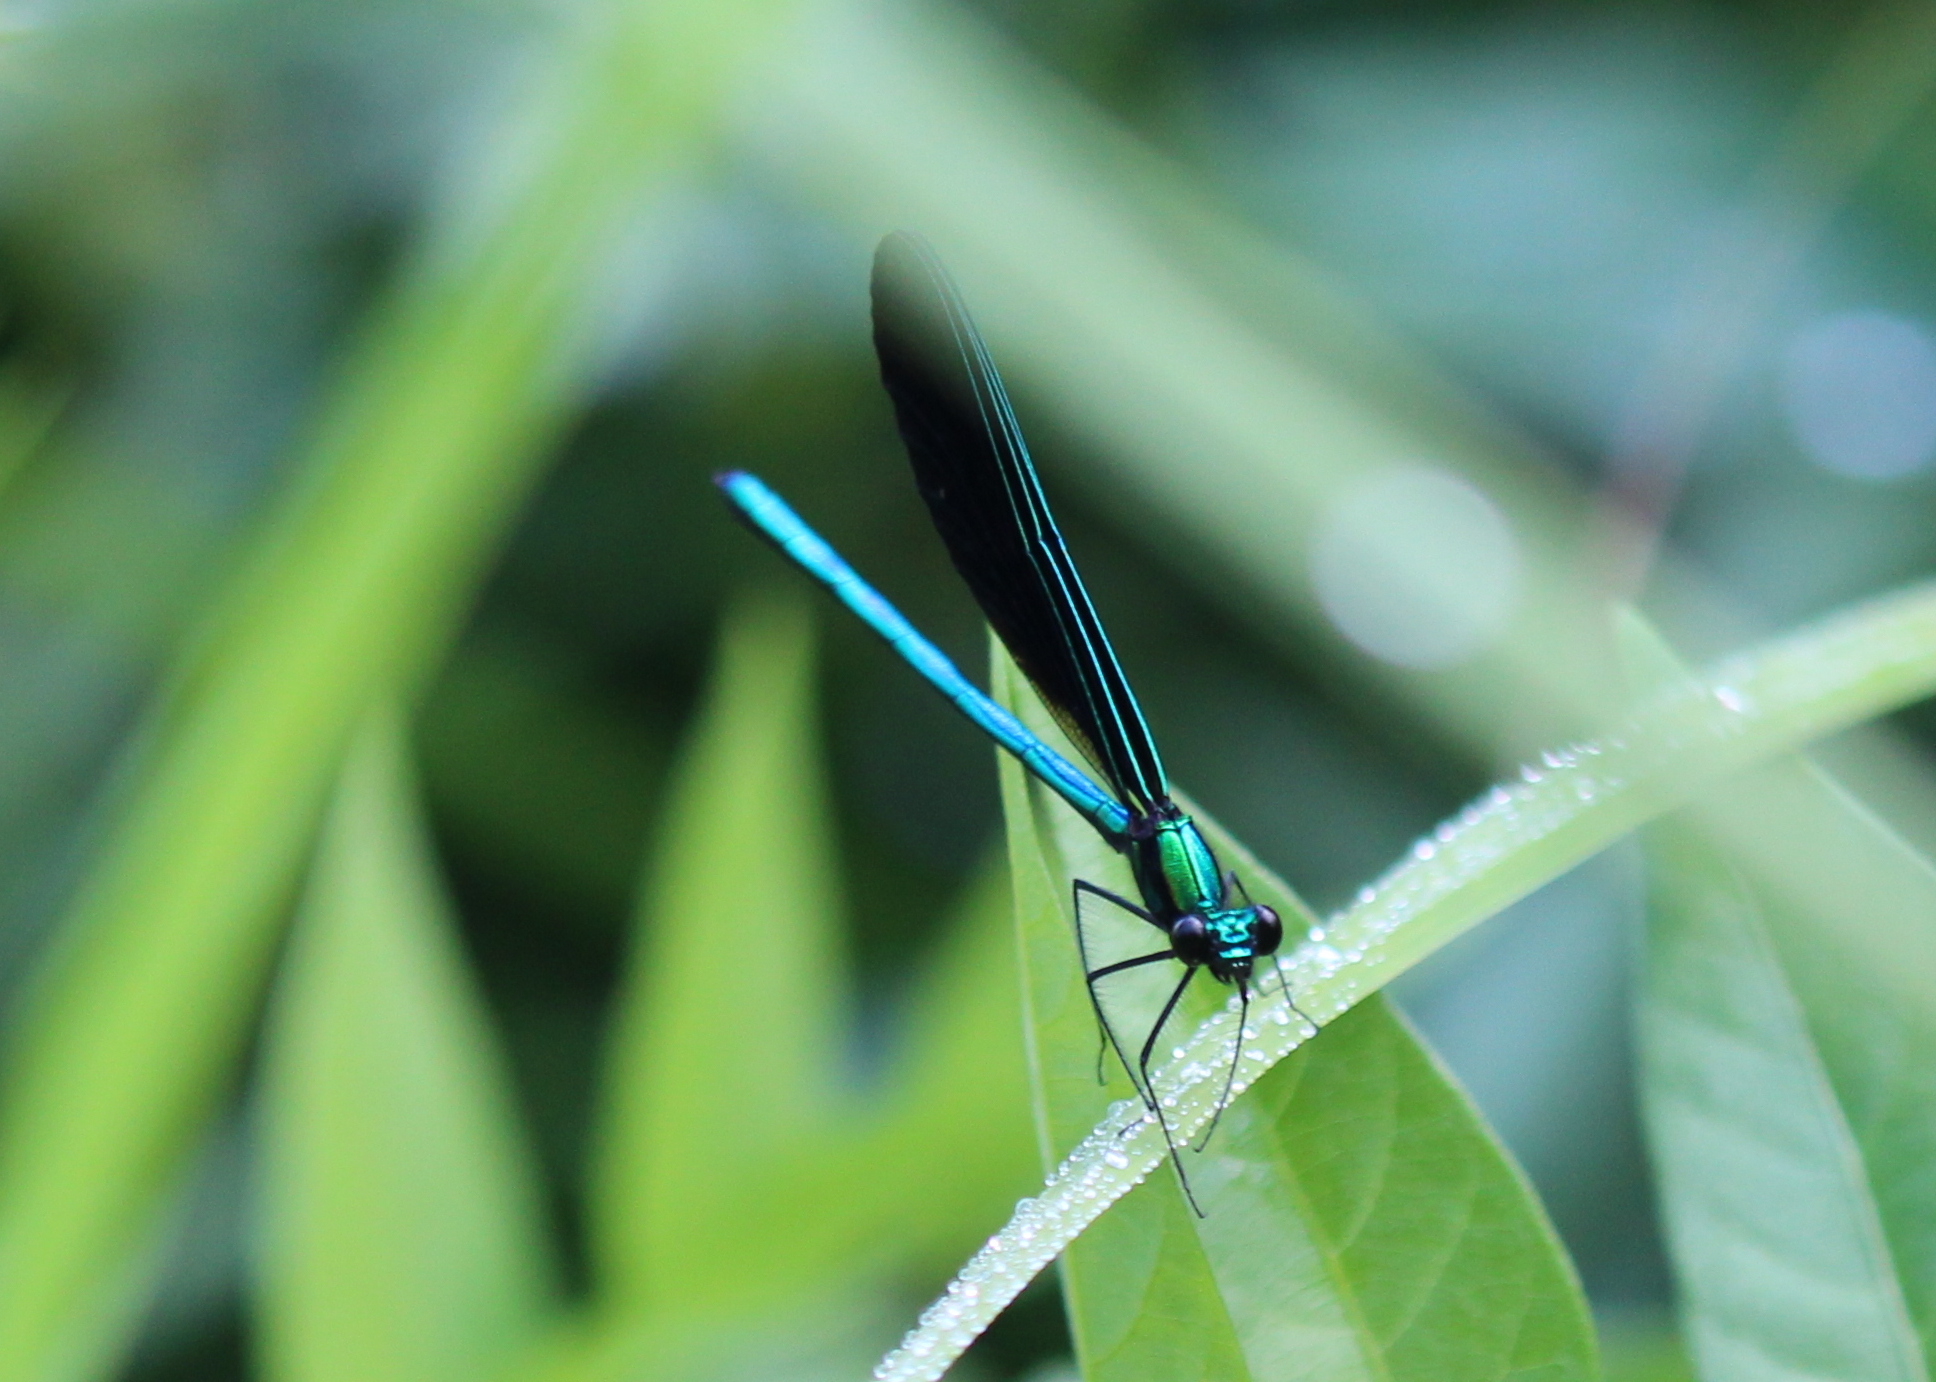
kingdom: Animalia
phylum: Arthropoda
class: Insecta
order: Odonata
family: Calopterygidae
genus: Calopteryx
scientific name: Calopteryx maculata
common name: Ebony jewelwing
